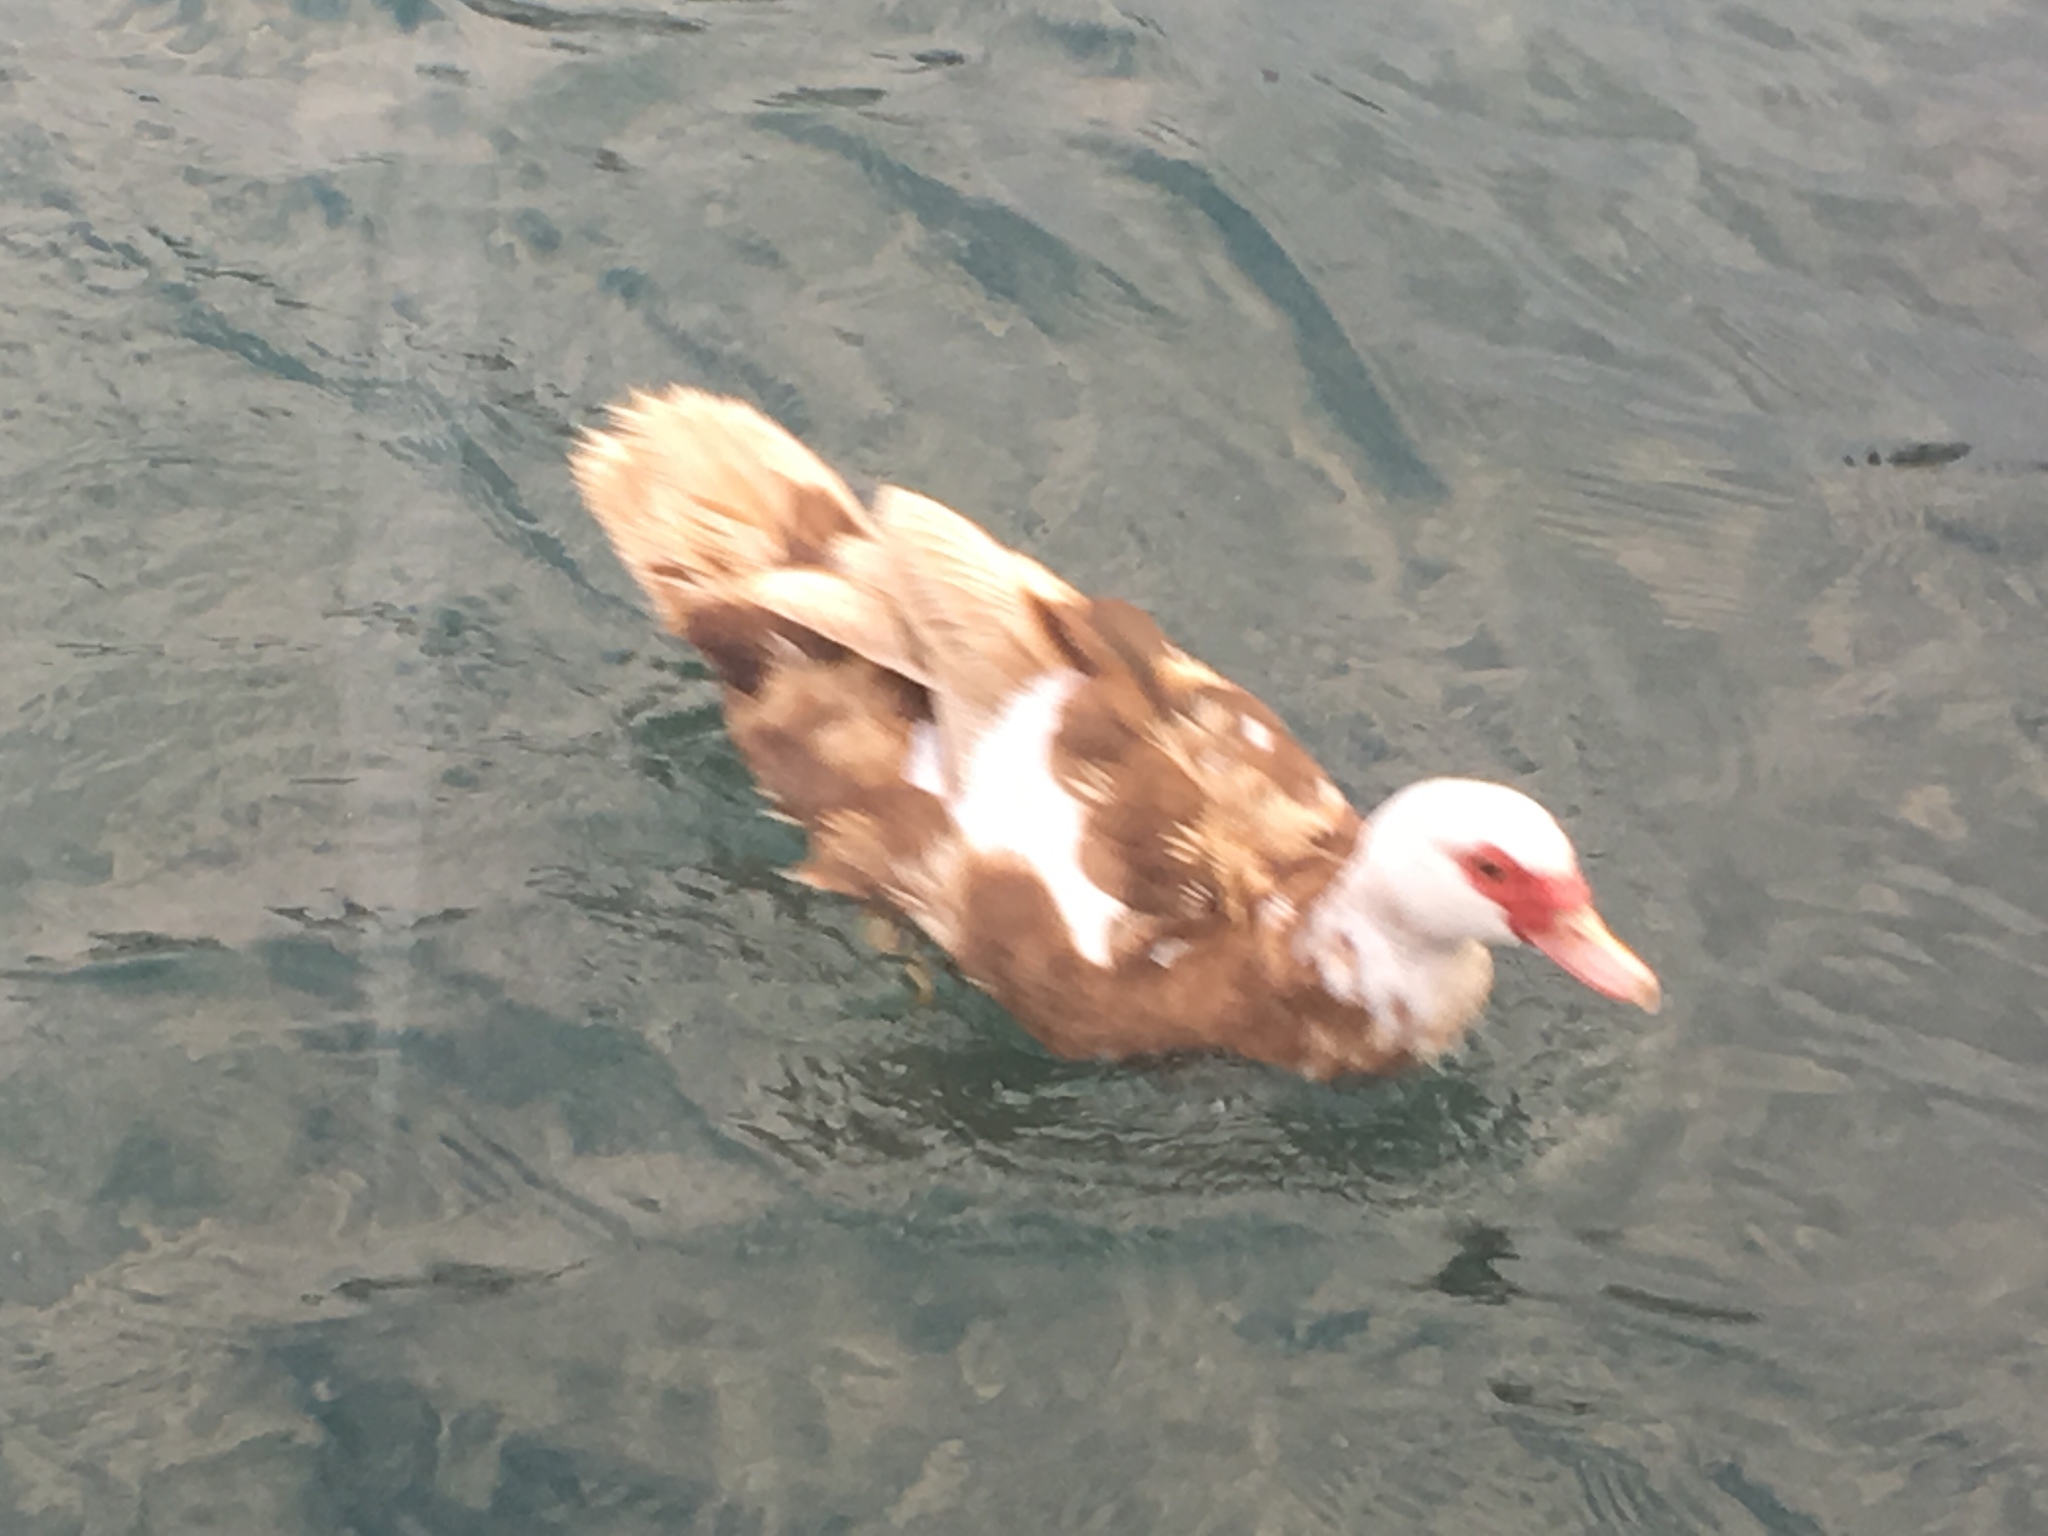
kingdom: Animalia
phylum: Chordata
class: Aves
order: Anseriformes
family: Anatidae
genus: Cairina
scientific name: Cairina moschata
